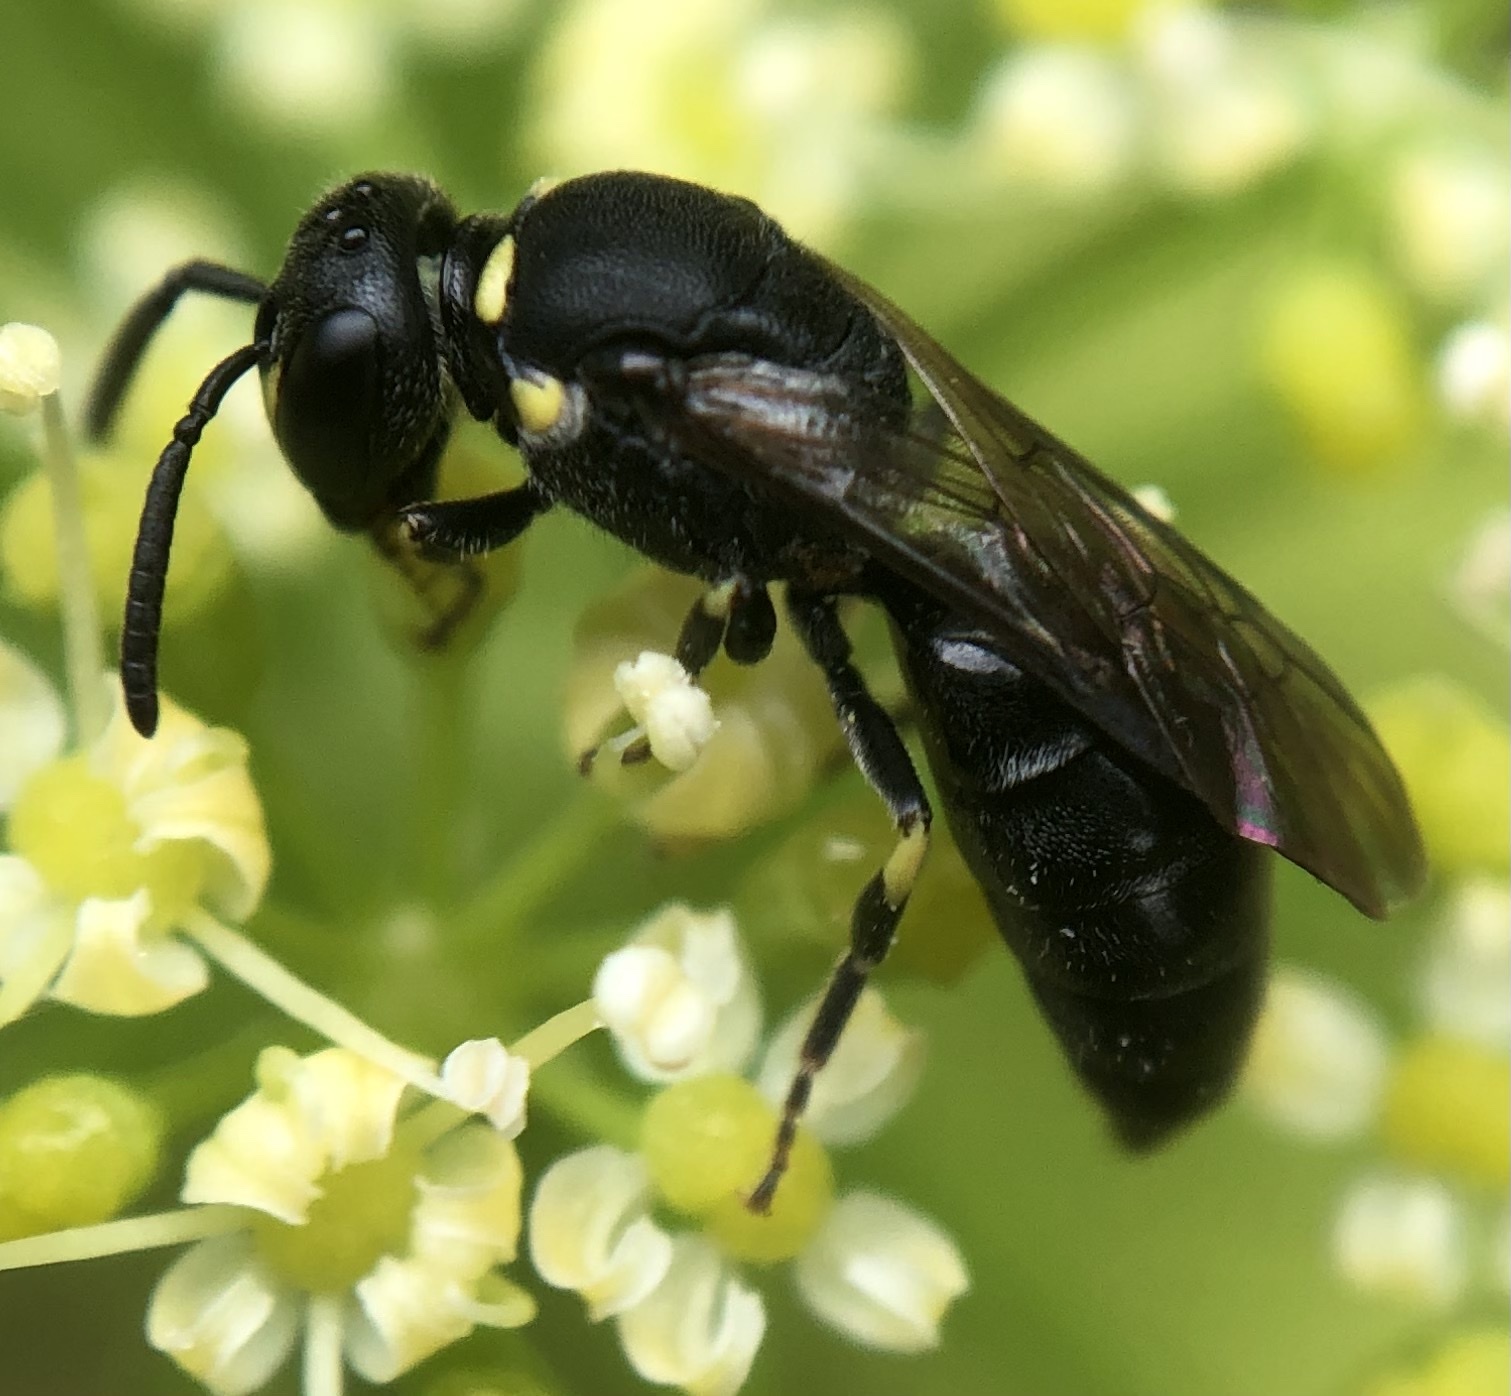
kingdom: Animalia
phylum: Arthropoda
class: Insecta
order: Hymenoptera
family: Colletidae
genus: Hylaeus
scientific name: Hylaeus modestus
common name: Yellow-faced bee
